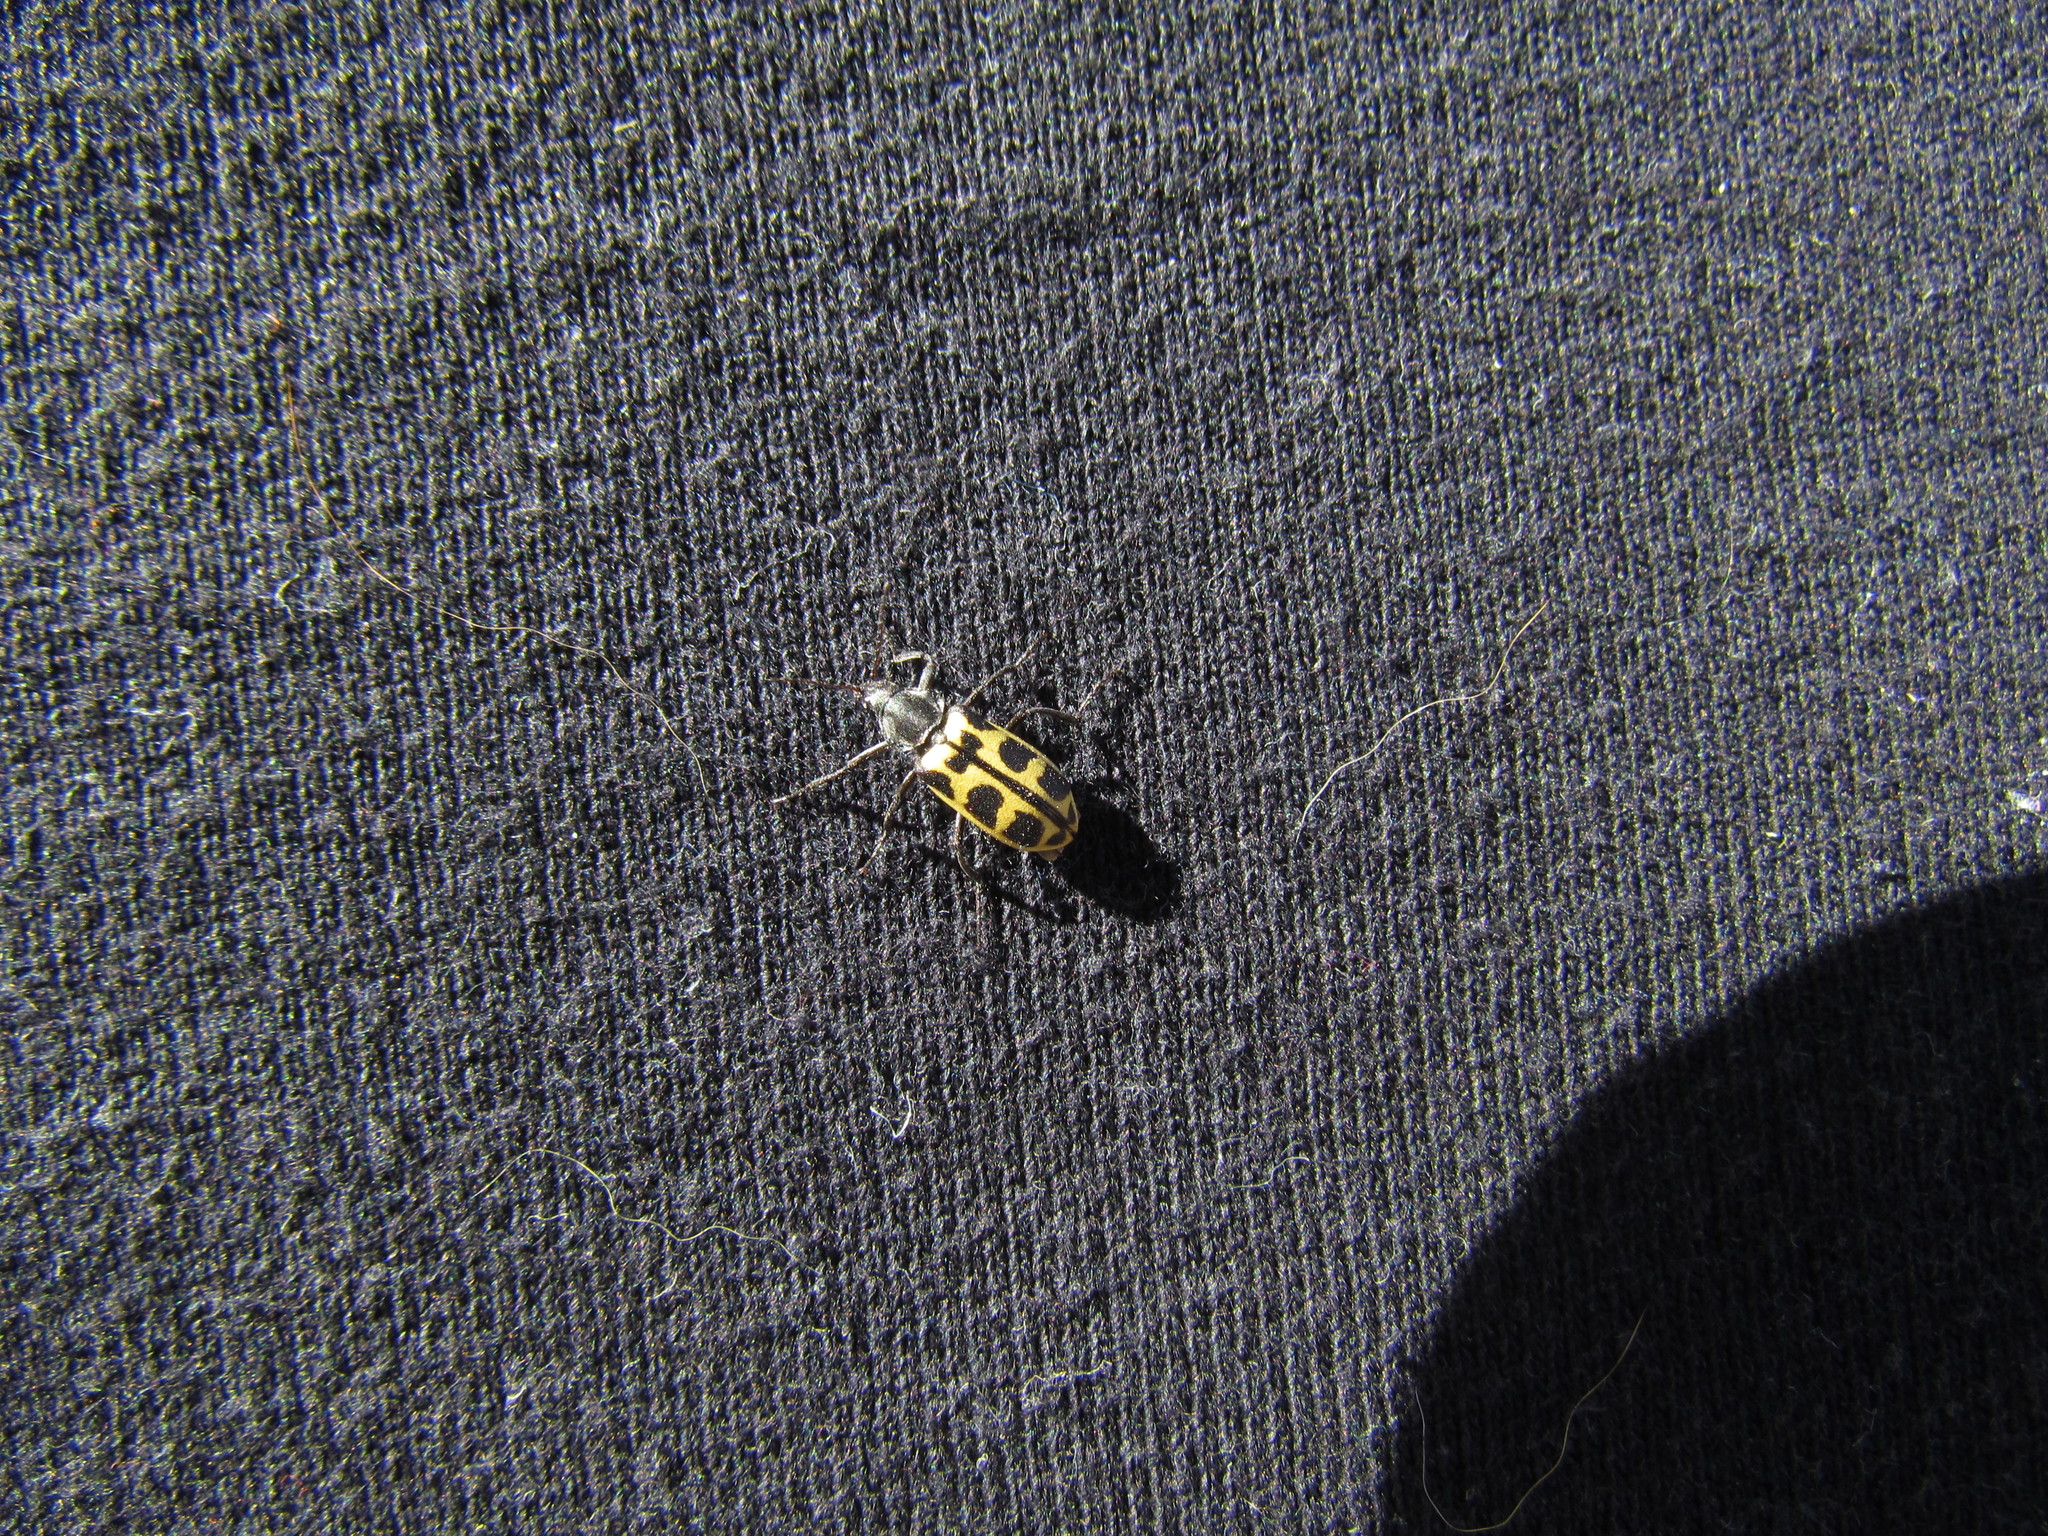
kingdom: Animalia
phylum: Arthropoda
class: Insecta
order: Coleoptera
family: Melyridae
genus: Astylus
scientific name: Astylus atromaculatus
